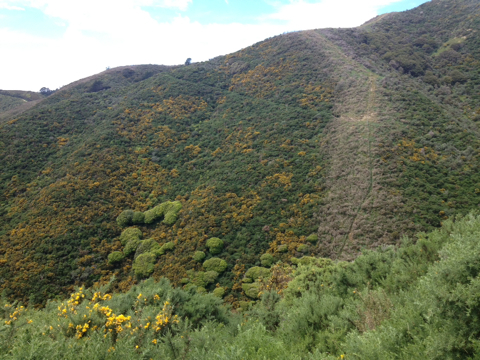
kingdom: Plantae
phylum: Tracheophyta
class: Magnoliopsida
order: Fabales
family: Fabaceae
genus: Ulex
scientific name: Ulex europaeus
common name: Common gorse
